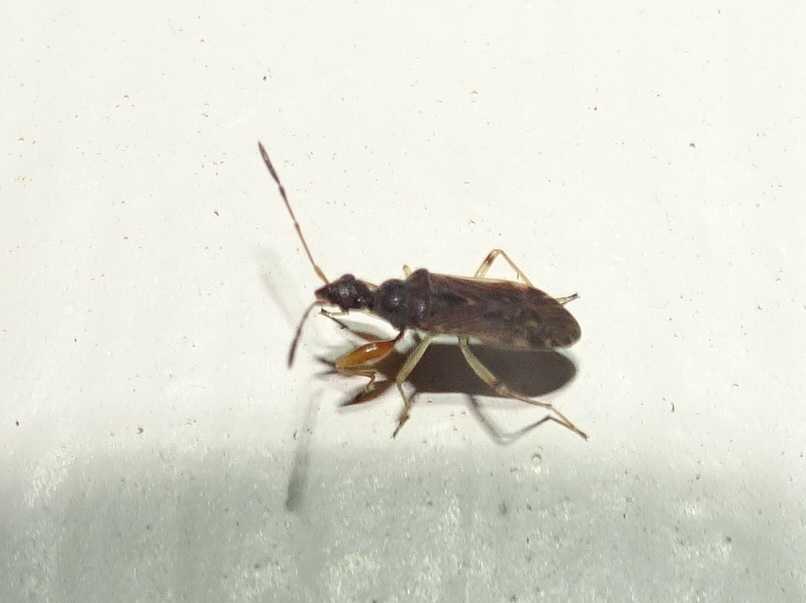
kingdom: Animalia
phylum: Arthropoda
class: Insecta
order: Hemiptera
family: Rhyparochromidae
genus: Heraeus
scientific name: Heraeus plebejus
